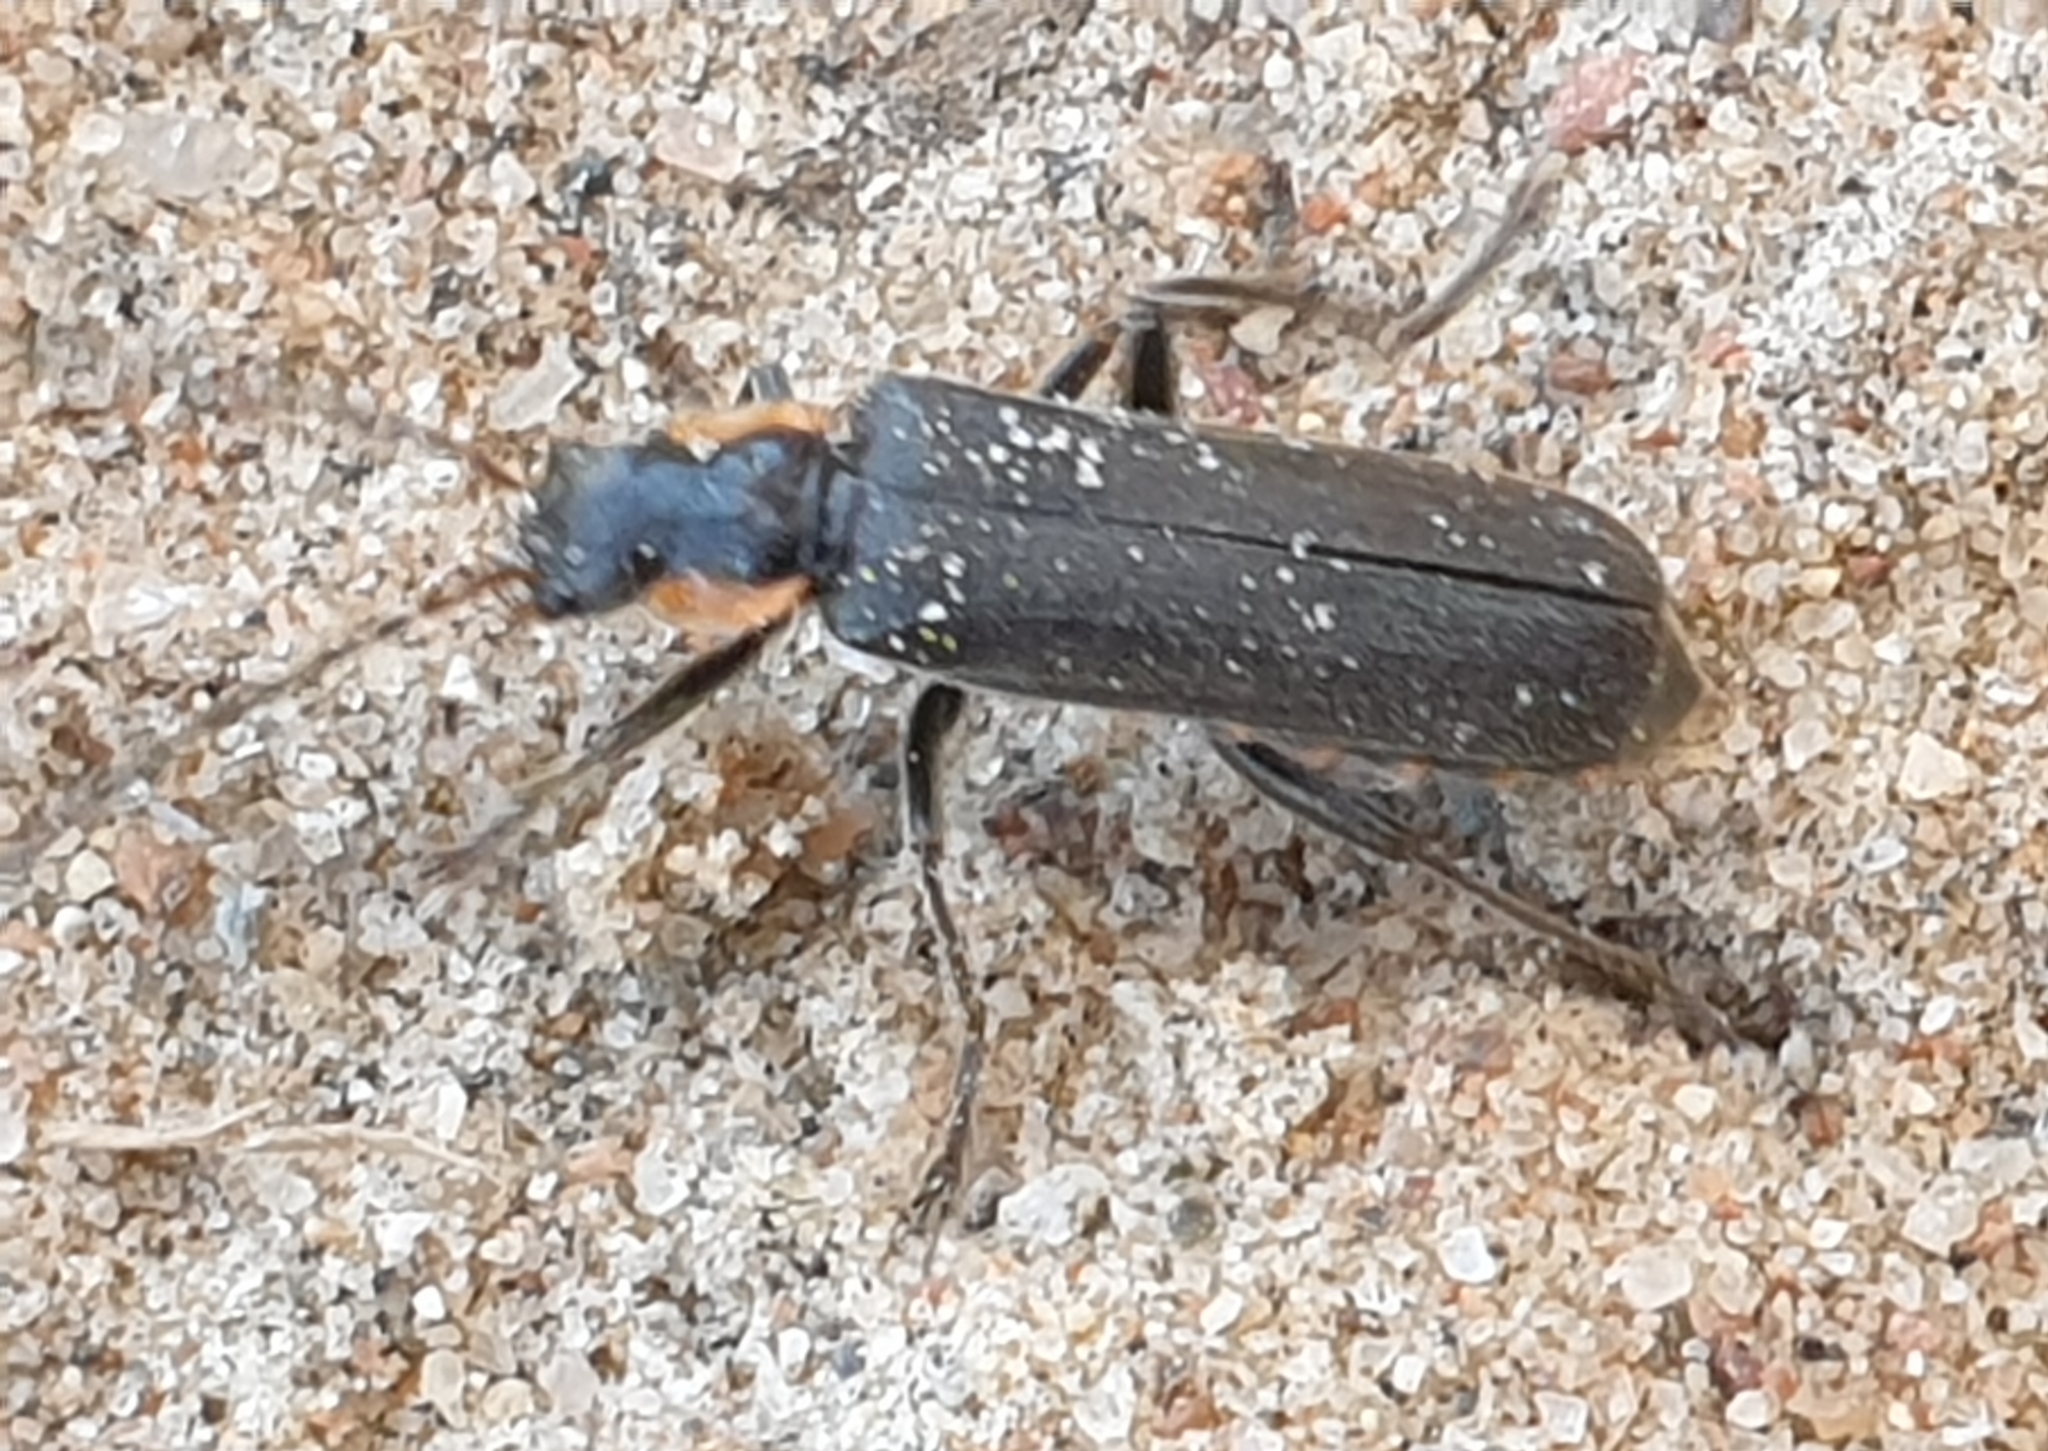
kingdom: Animalia
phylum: Arthropoda
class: Insecta
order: Coleoptera
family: Cantharidae
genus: Cantharis
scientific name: Cantharis obscura
